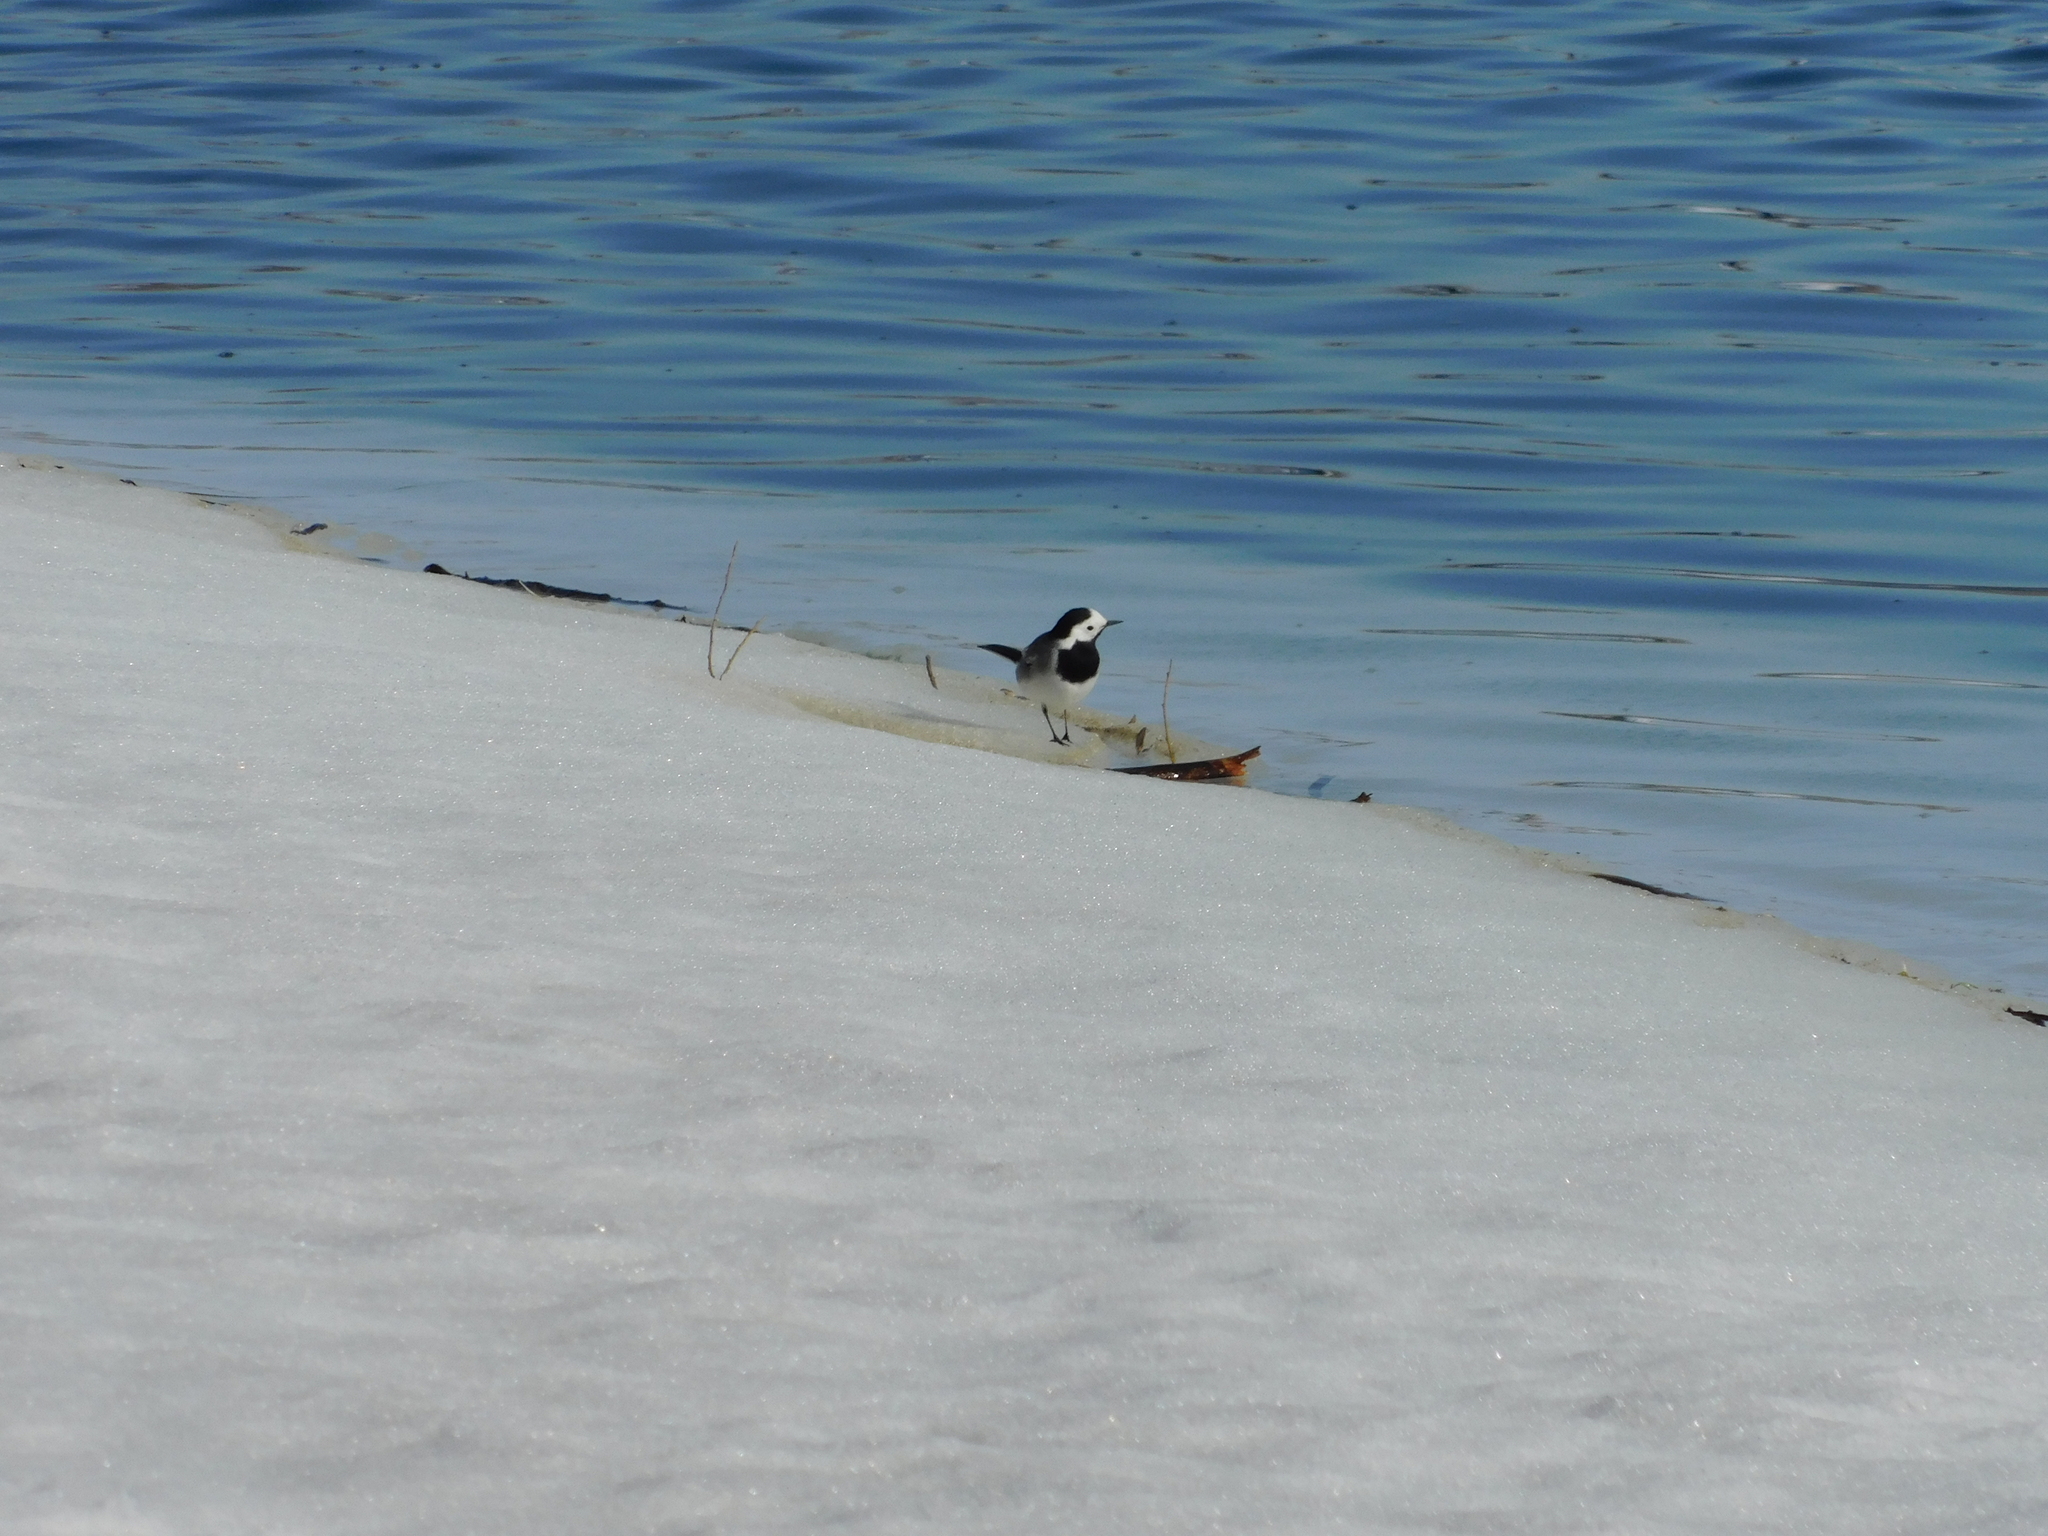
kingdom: Animalia
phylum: Chordata
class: Aves
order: Passeriformes
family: Motacillidae
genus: Motacilla
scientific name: Motacilla alba
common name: White wagtail
